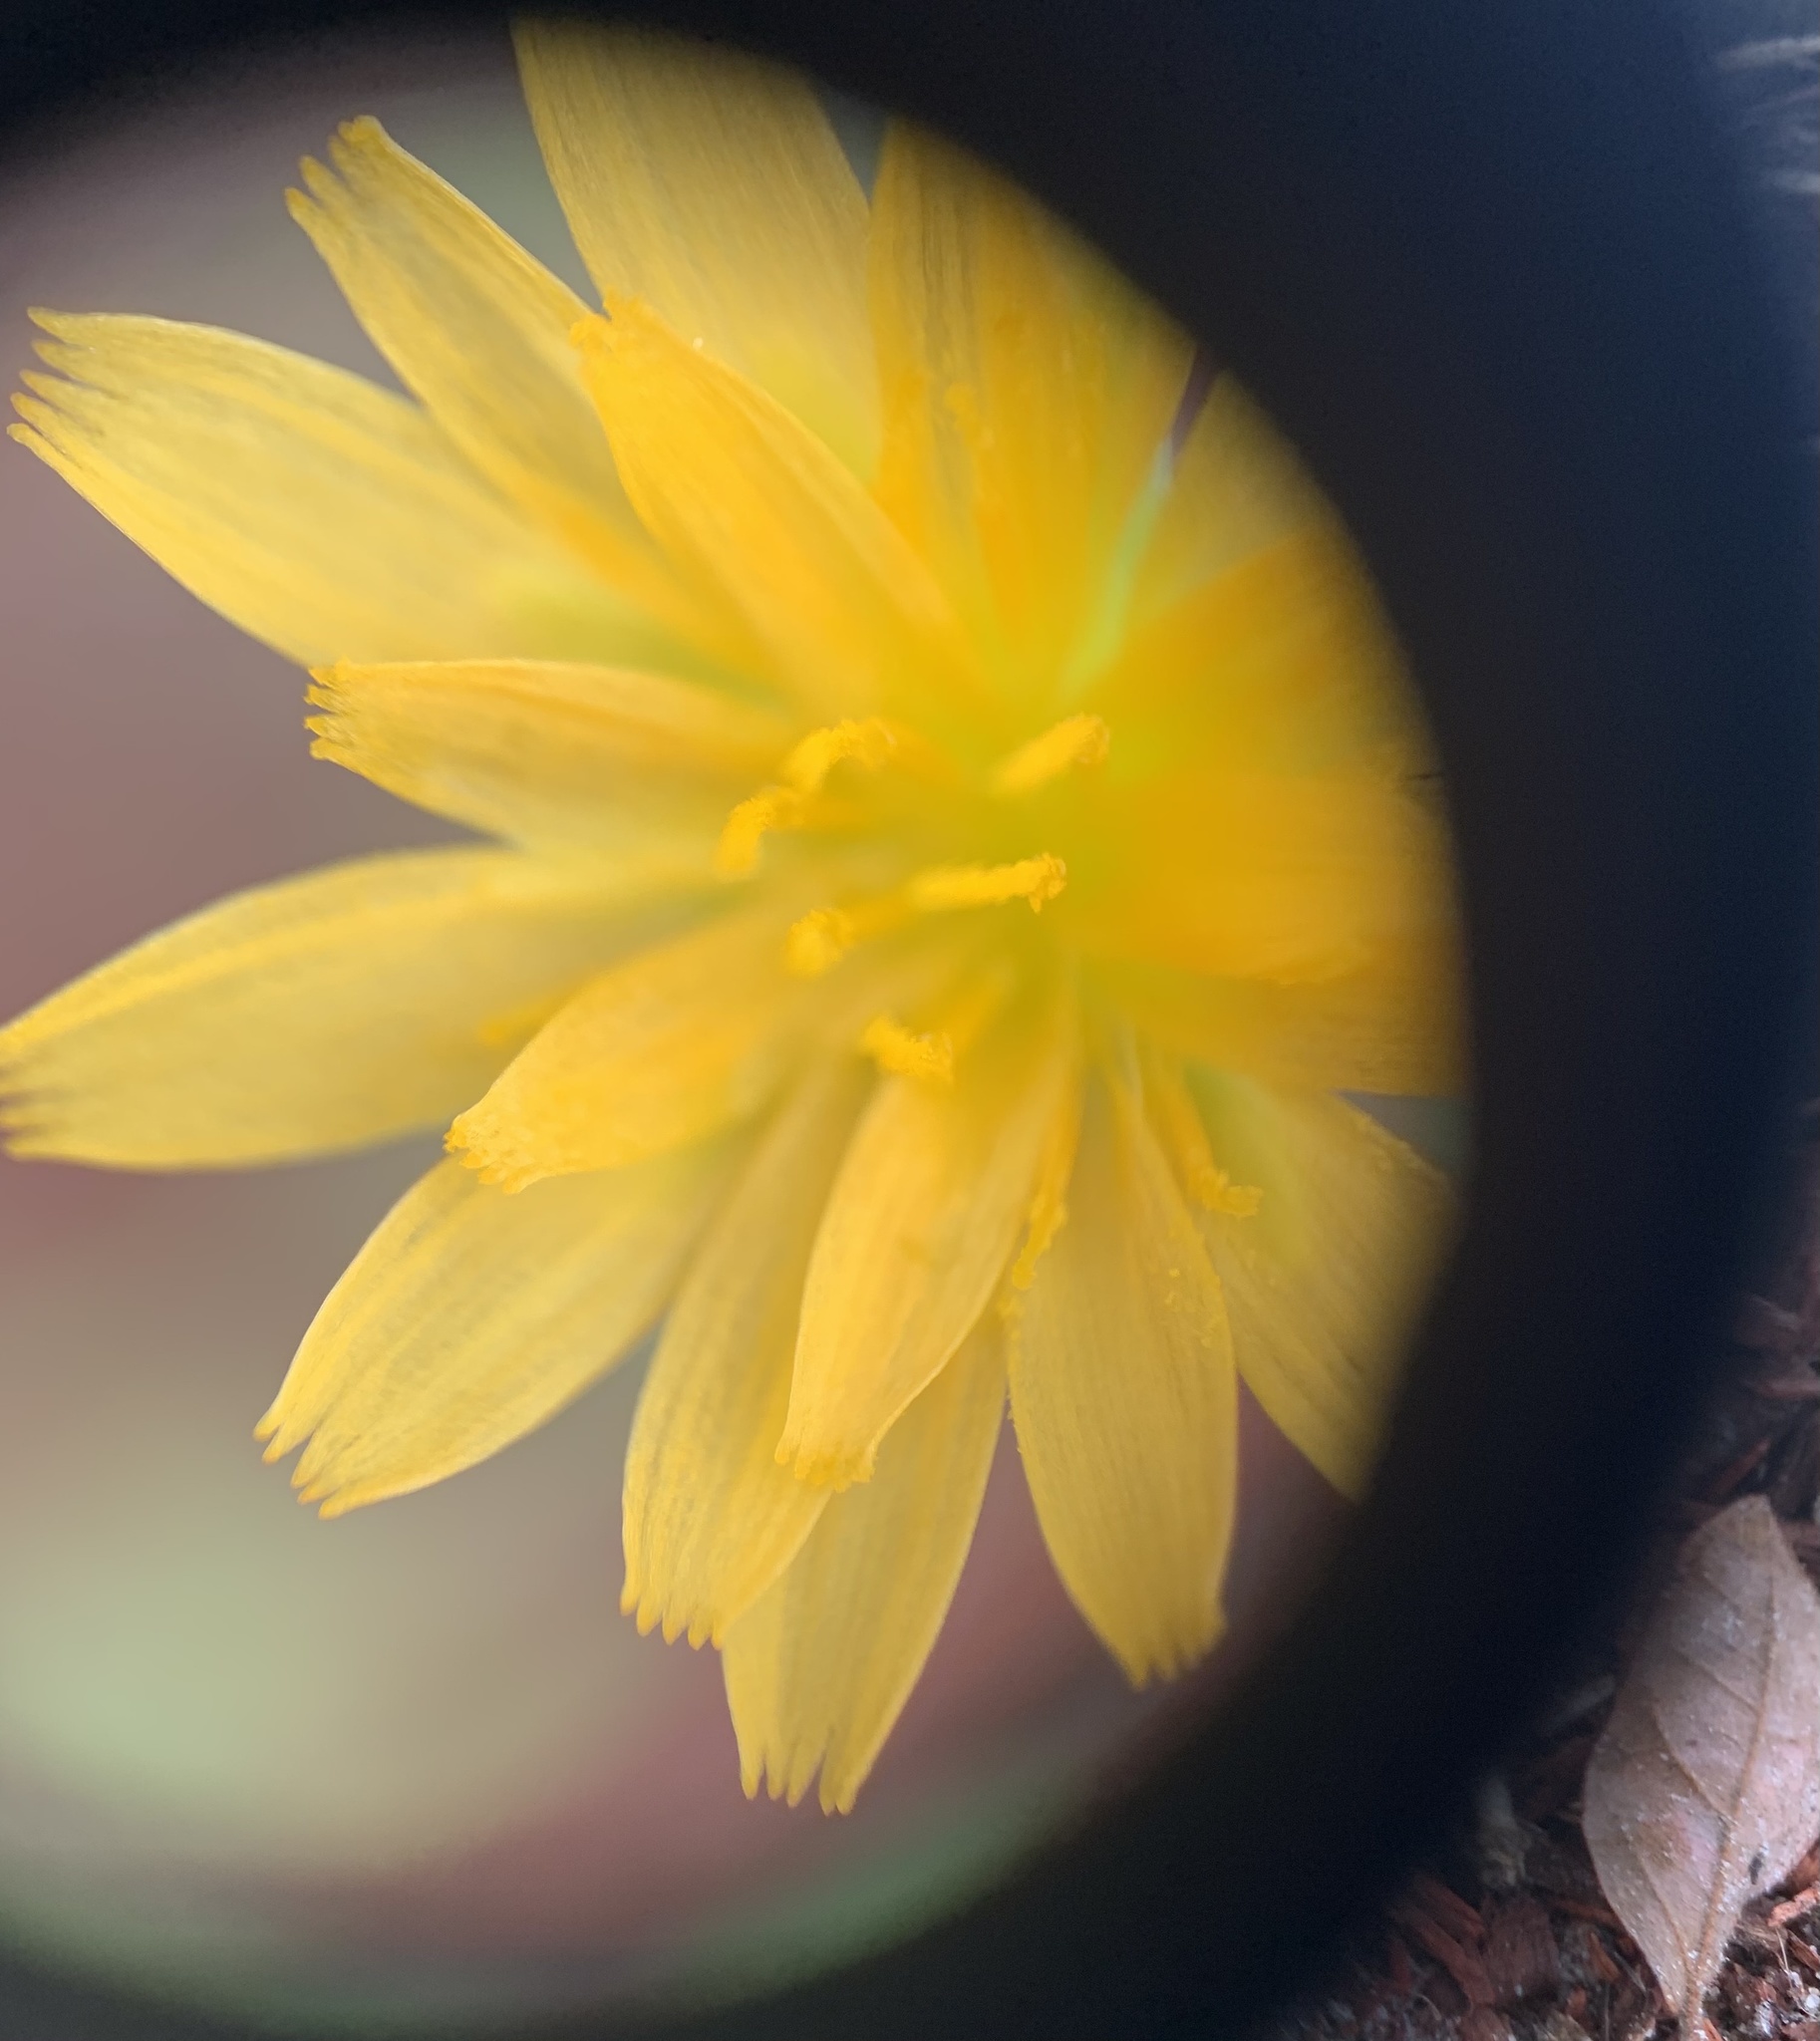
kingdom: Plantae
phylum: Tracheophyta
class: Magnoliopsida
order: Asterales
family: Asteraceae
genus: Krigia
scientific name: Krigia virginica
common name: Virginia dwarf-dandelion
